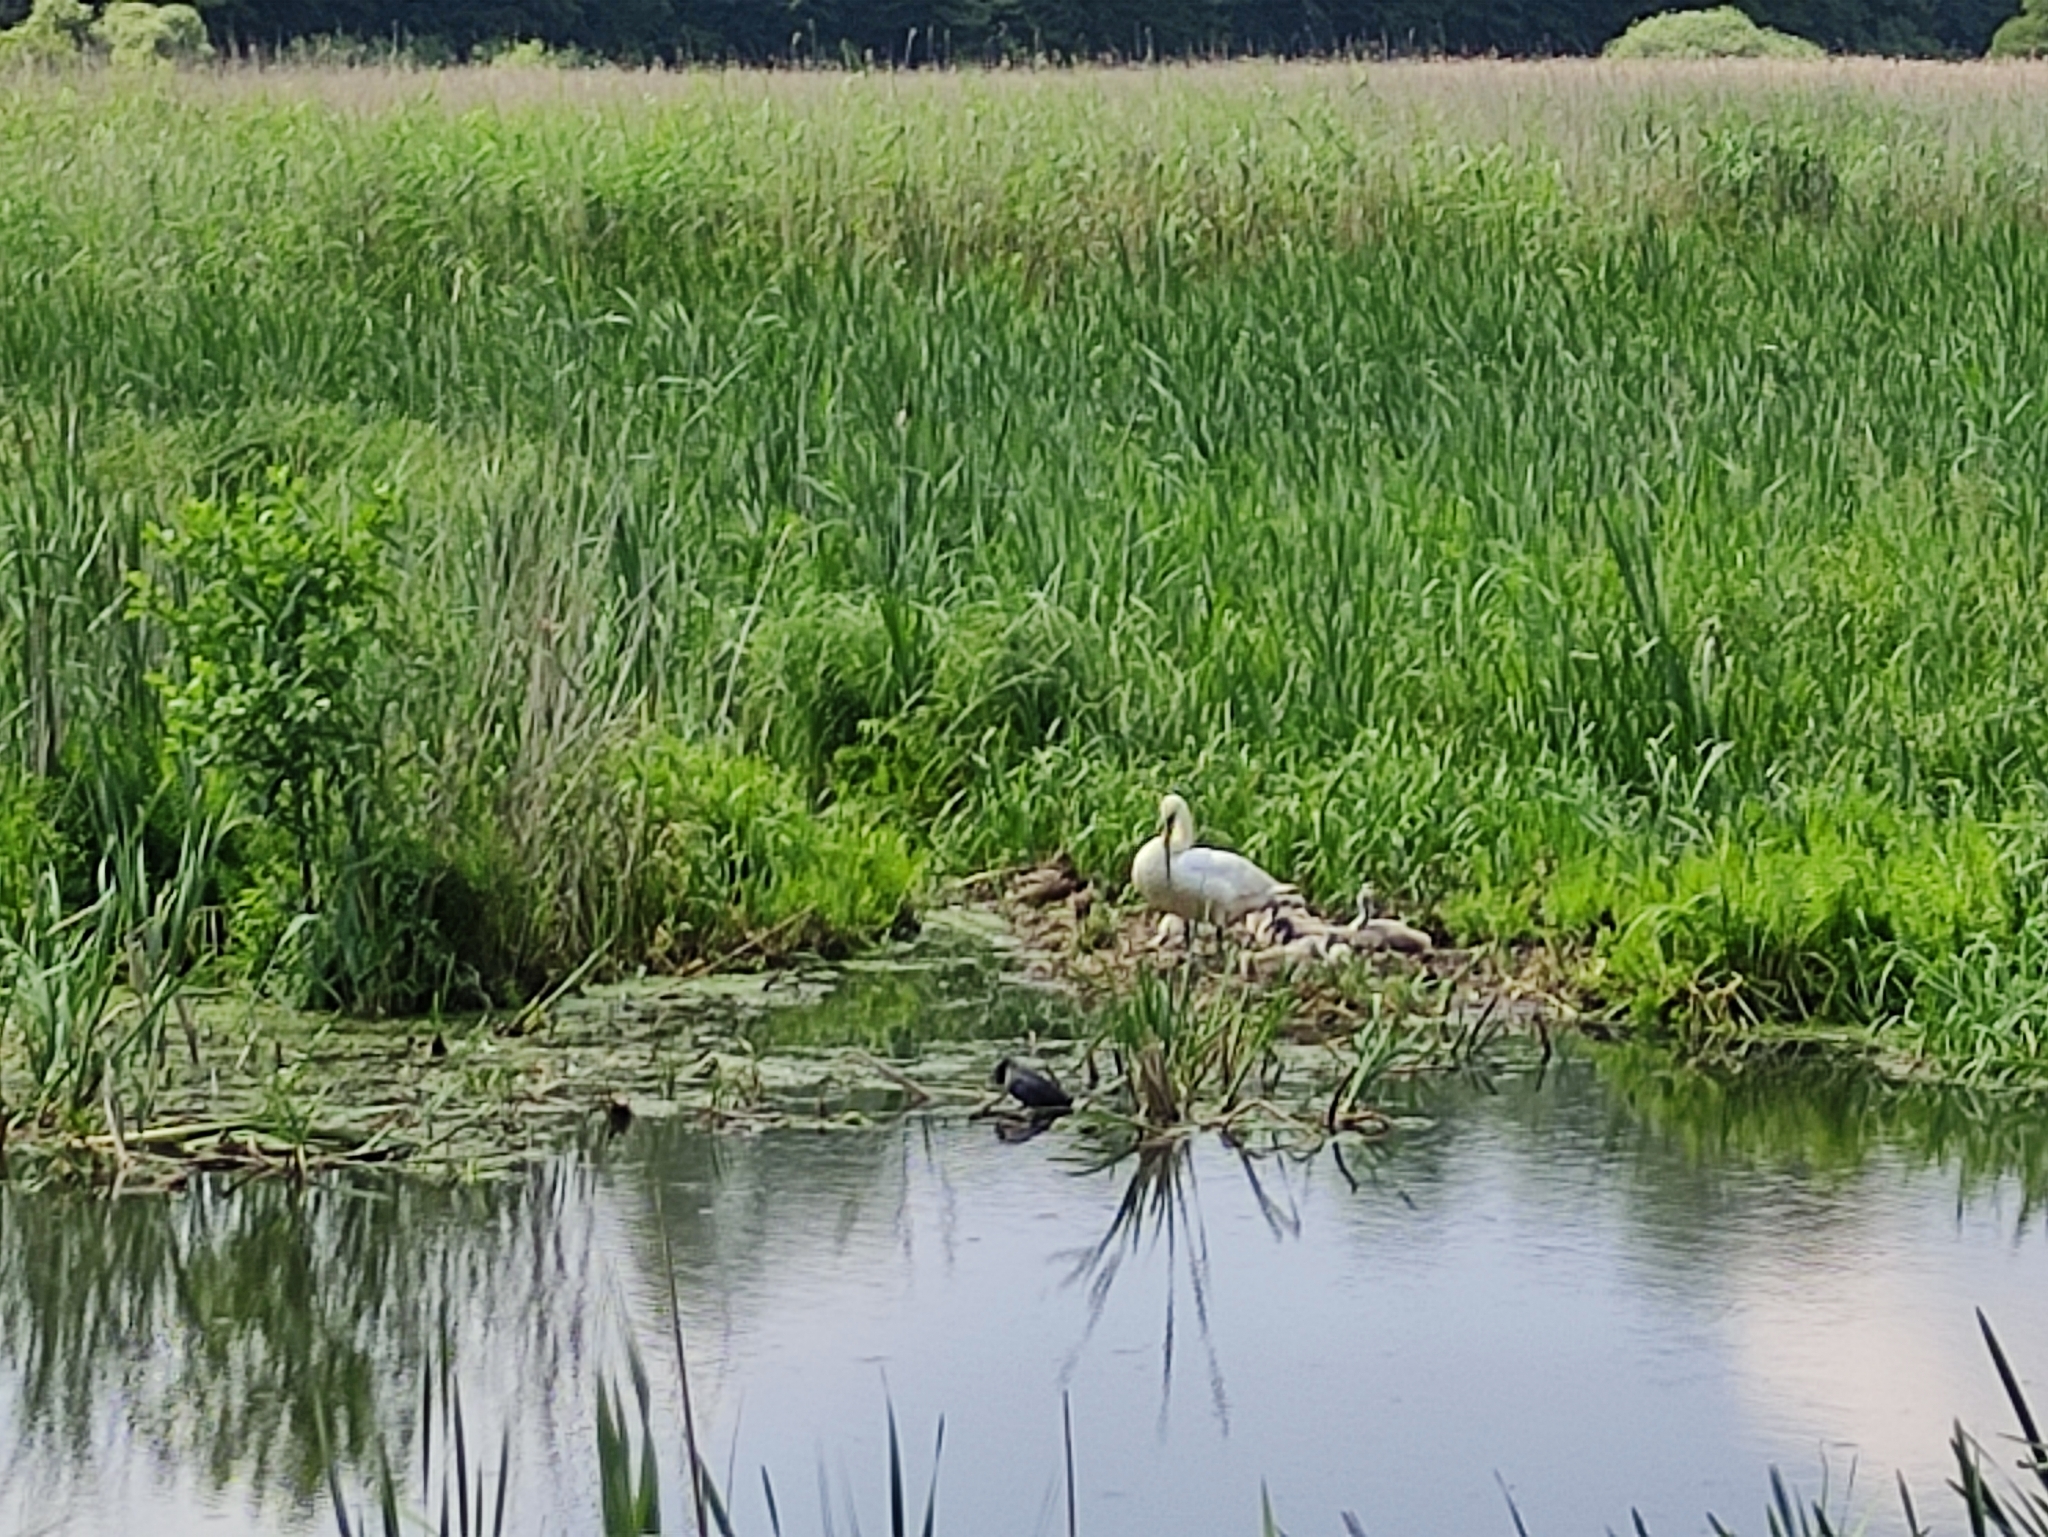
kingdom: Animalia
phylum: Chordata
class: Aves
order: Anseriformes
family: Anatidae
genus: Cygnus
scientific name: Cygnus olor
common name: Mute swan
